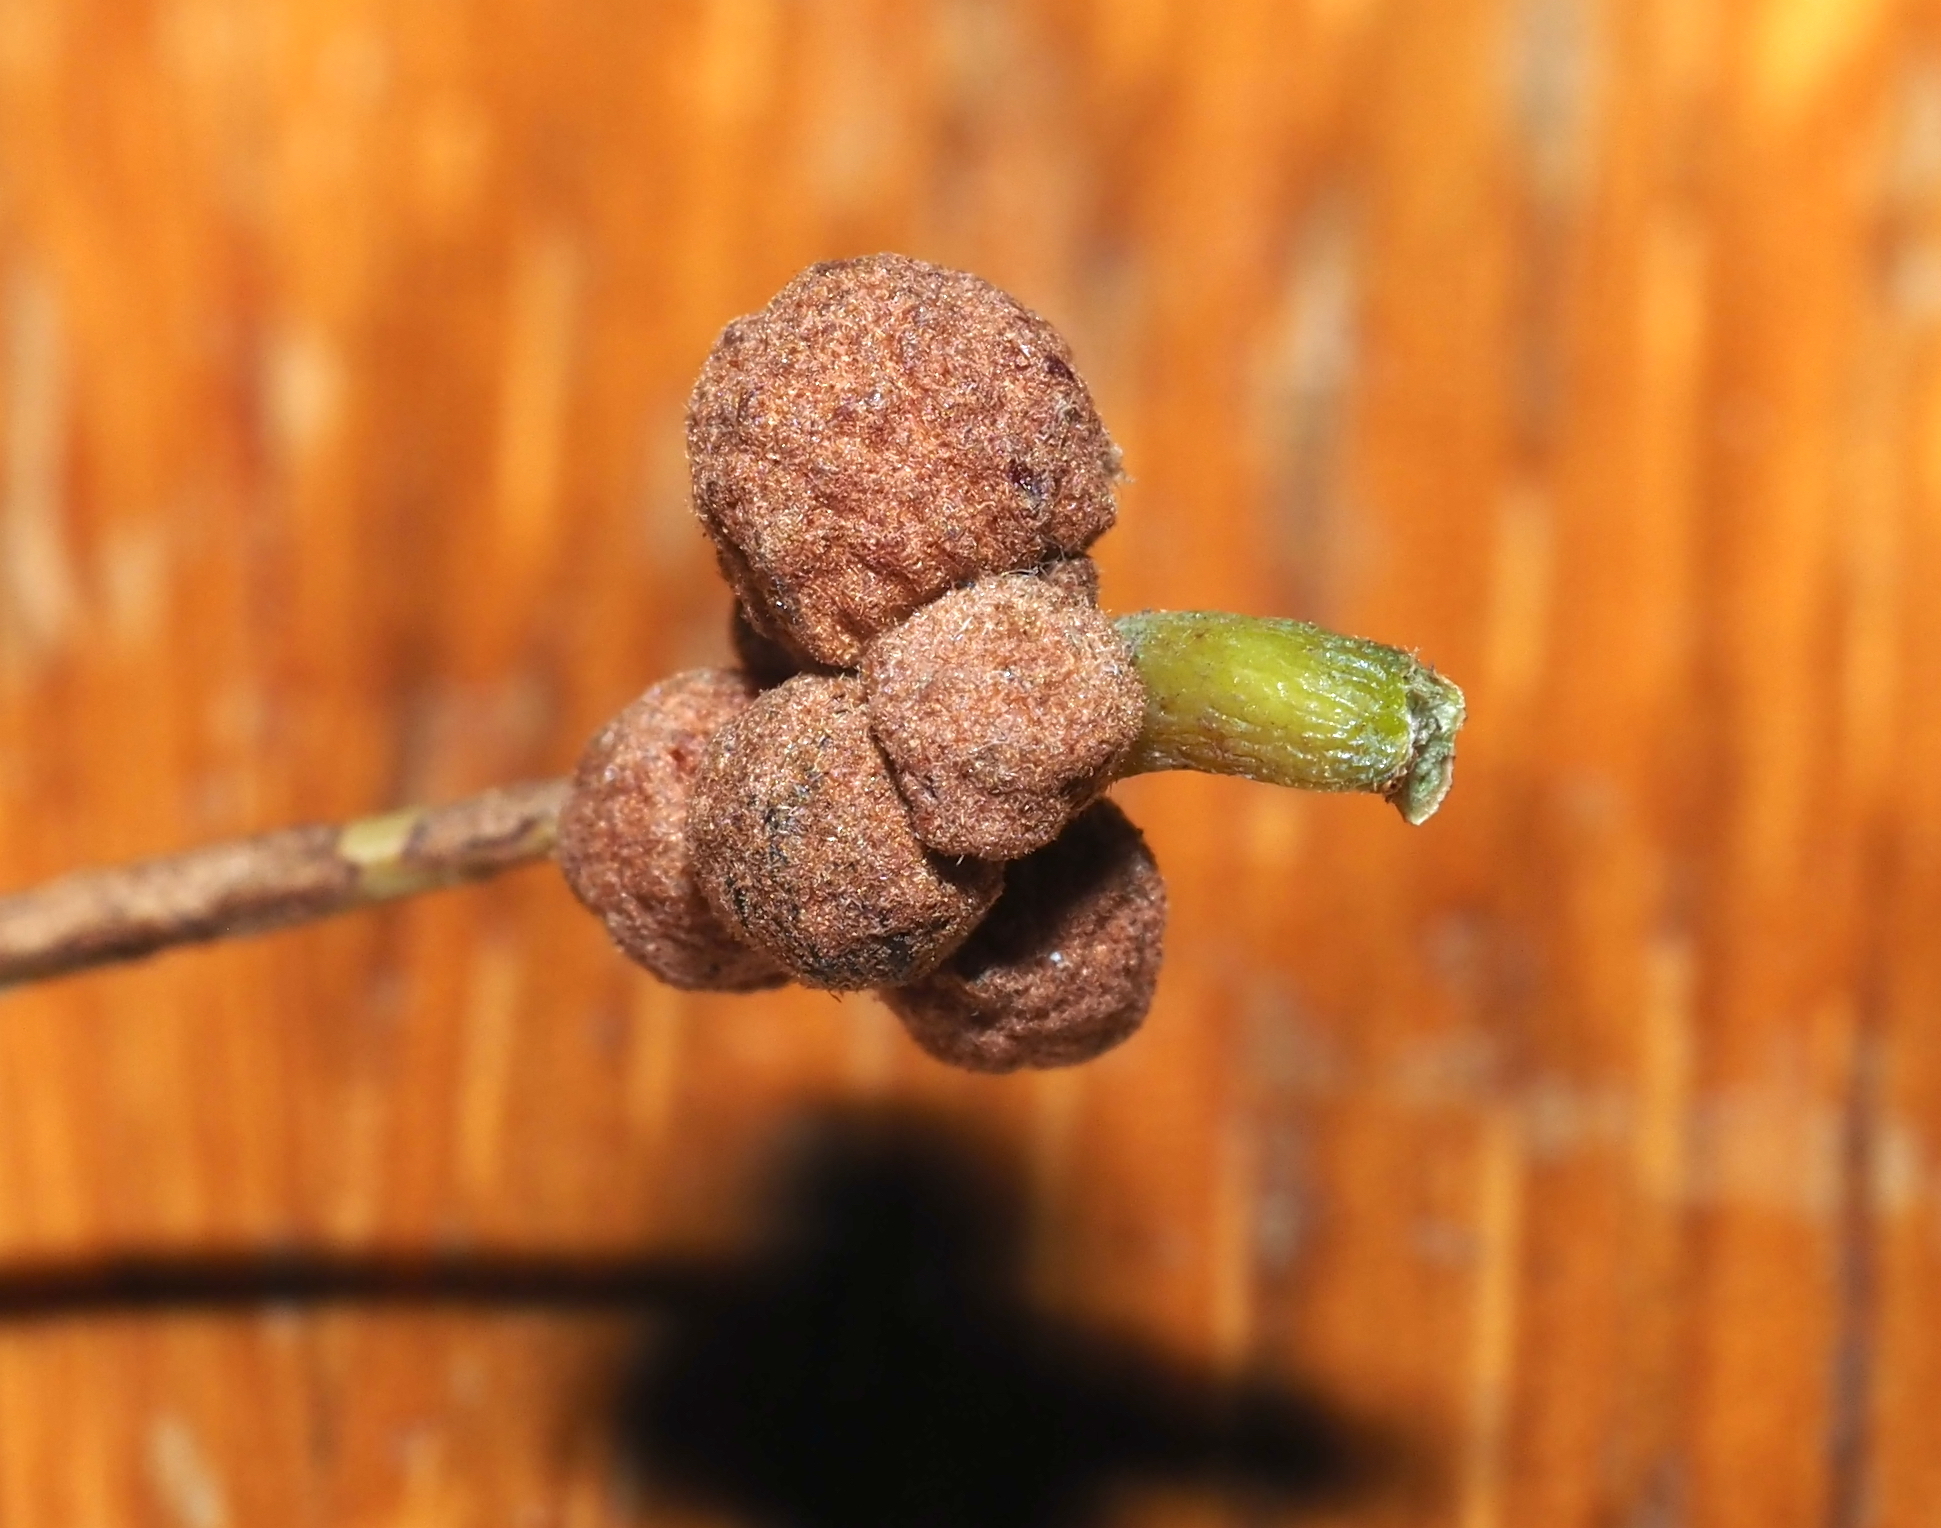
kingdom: Animalia
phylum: Arthropoda
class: Insecta
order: Hymenoptera
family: Cynipidae
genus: Andricus
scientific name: Andricus
